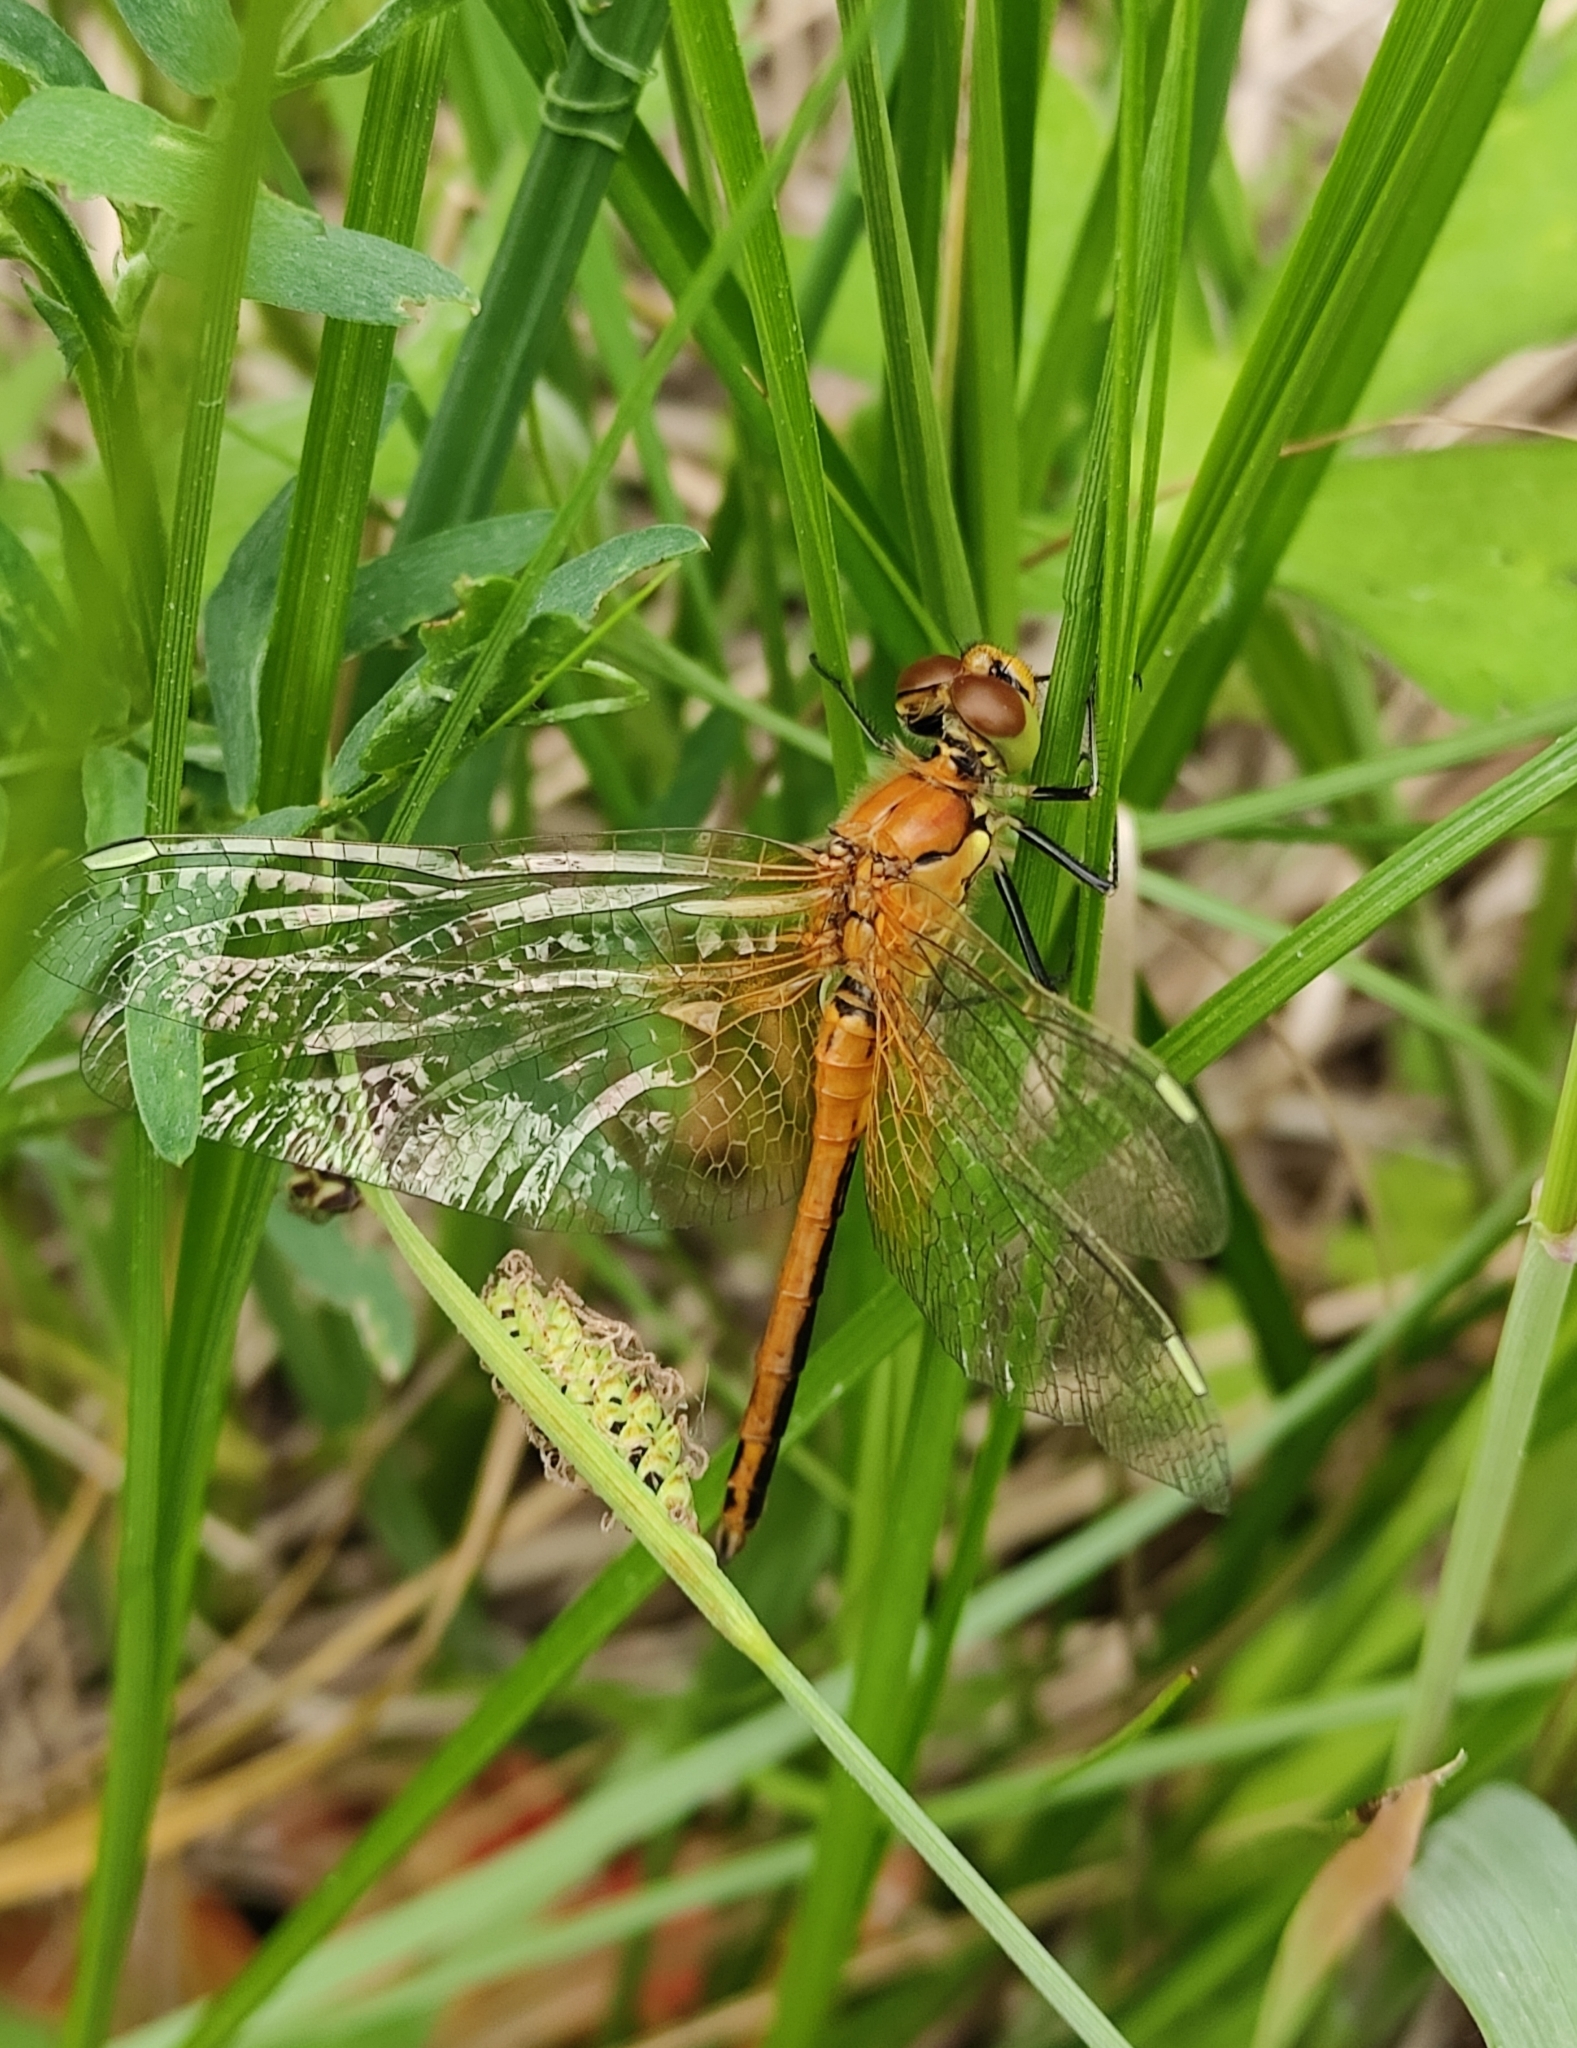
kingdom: Animalia
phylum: Arthropoda
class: Insecta
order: Odonata
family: Libellulidae
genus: Sympetrum
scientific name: Sympetrum flaveolum
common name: Yellow-winged darter
